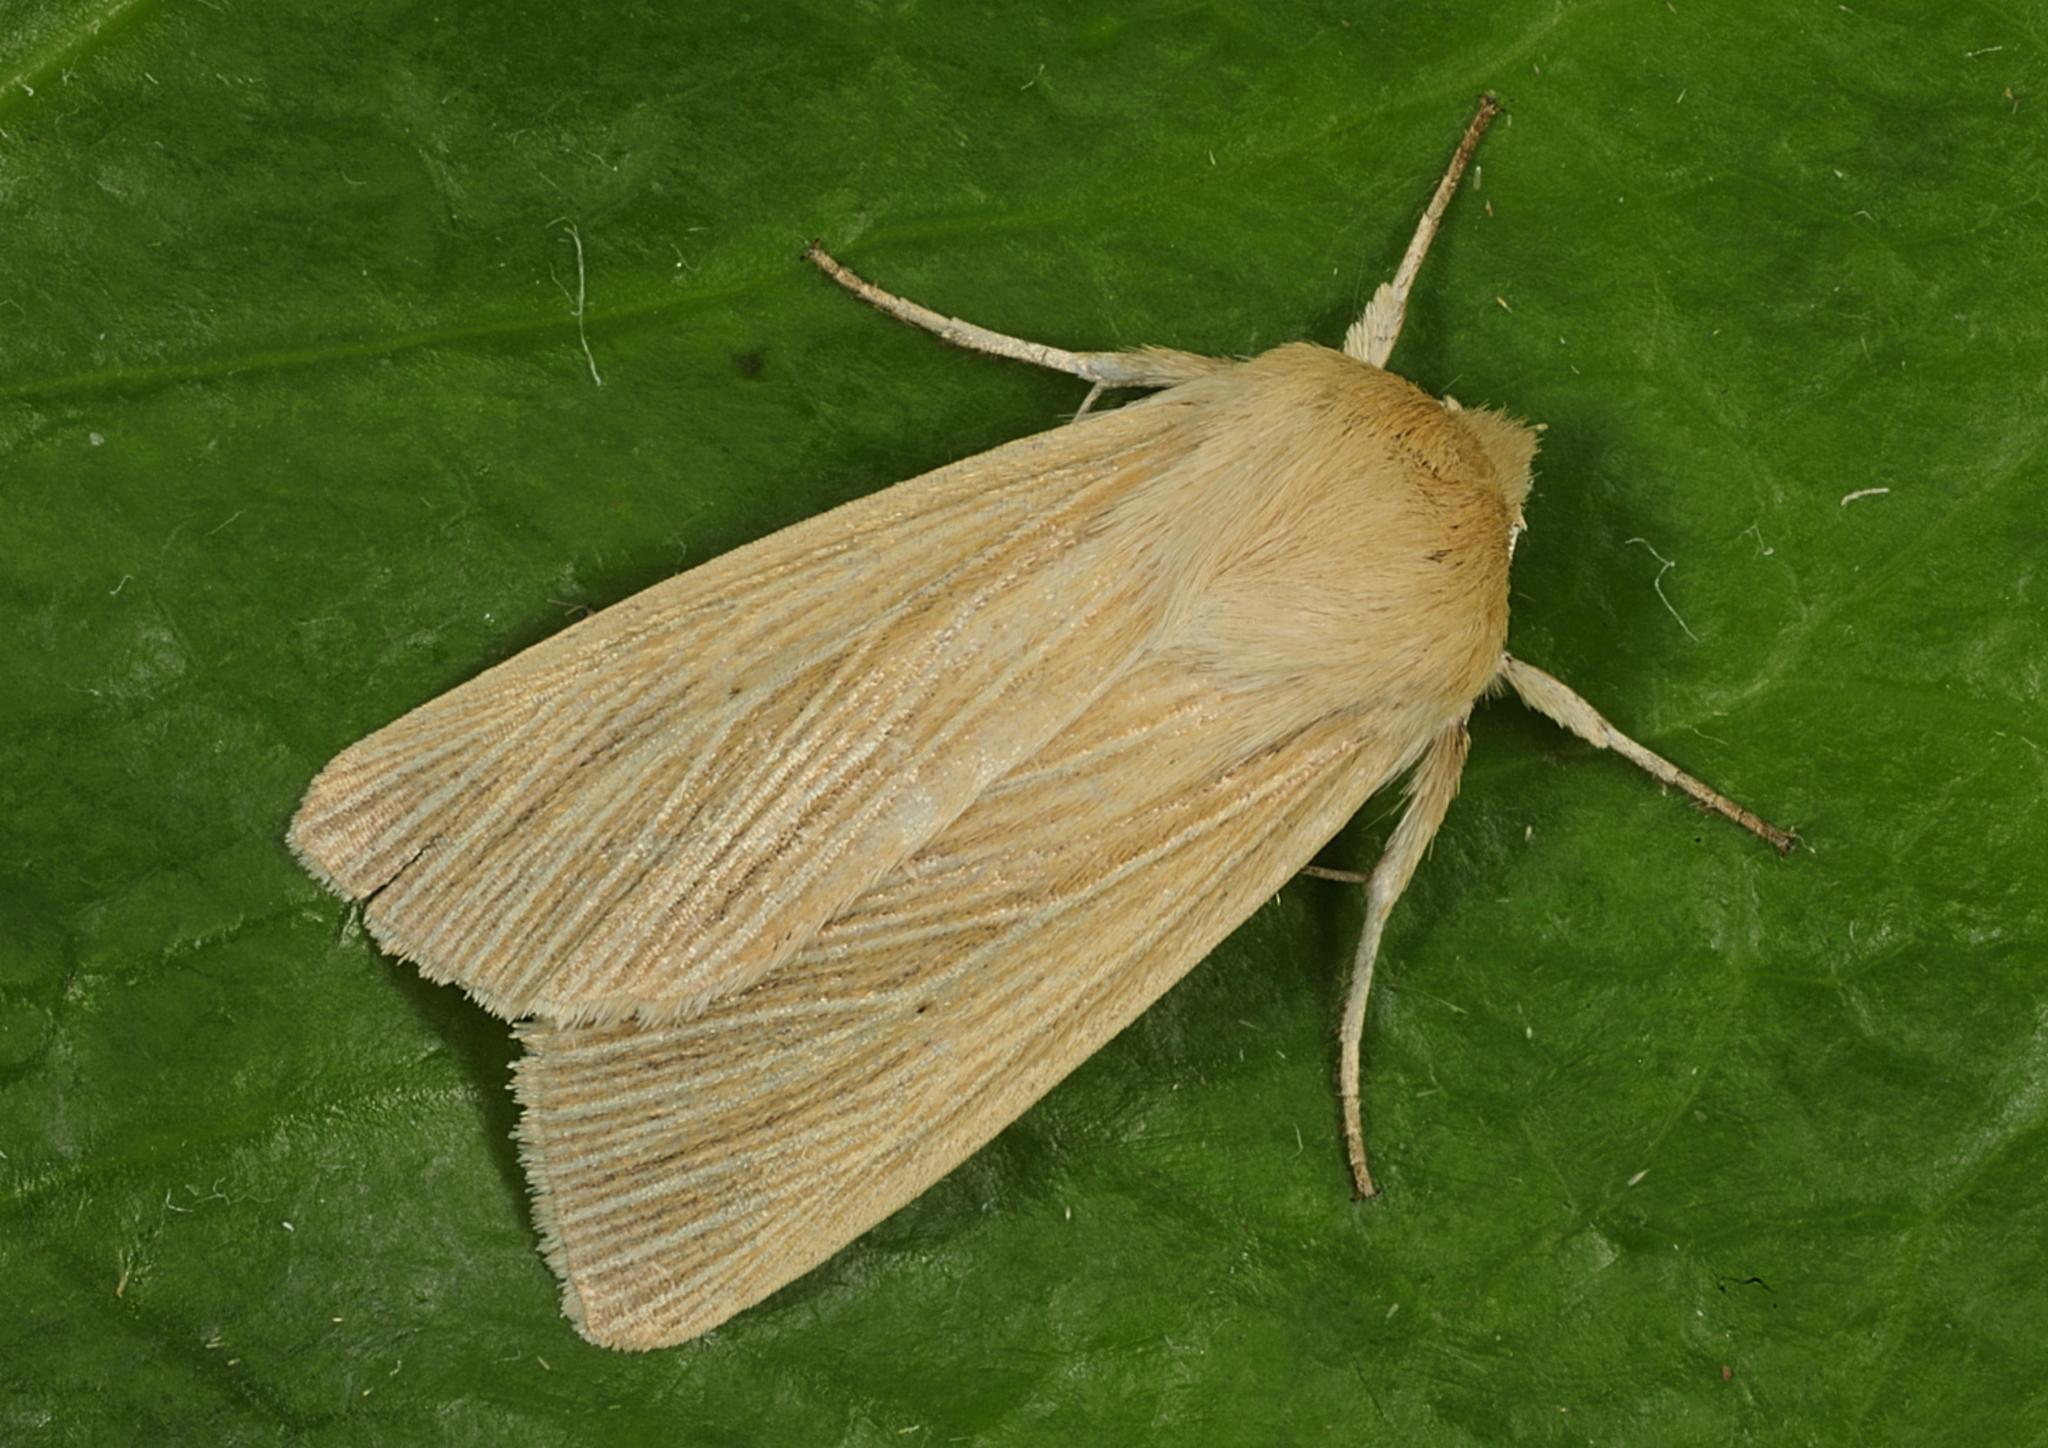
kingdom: Animalia
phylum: Arthropoda
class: Insecta
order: Lepidoptera
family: Noctuidae
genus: Mythimna
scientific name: Mythimna pallens
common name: Common wainscot
